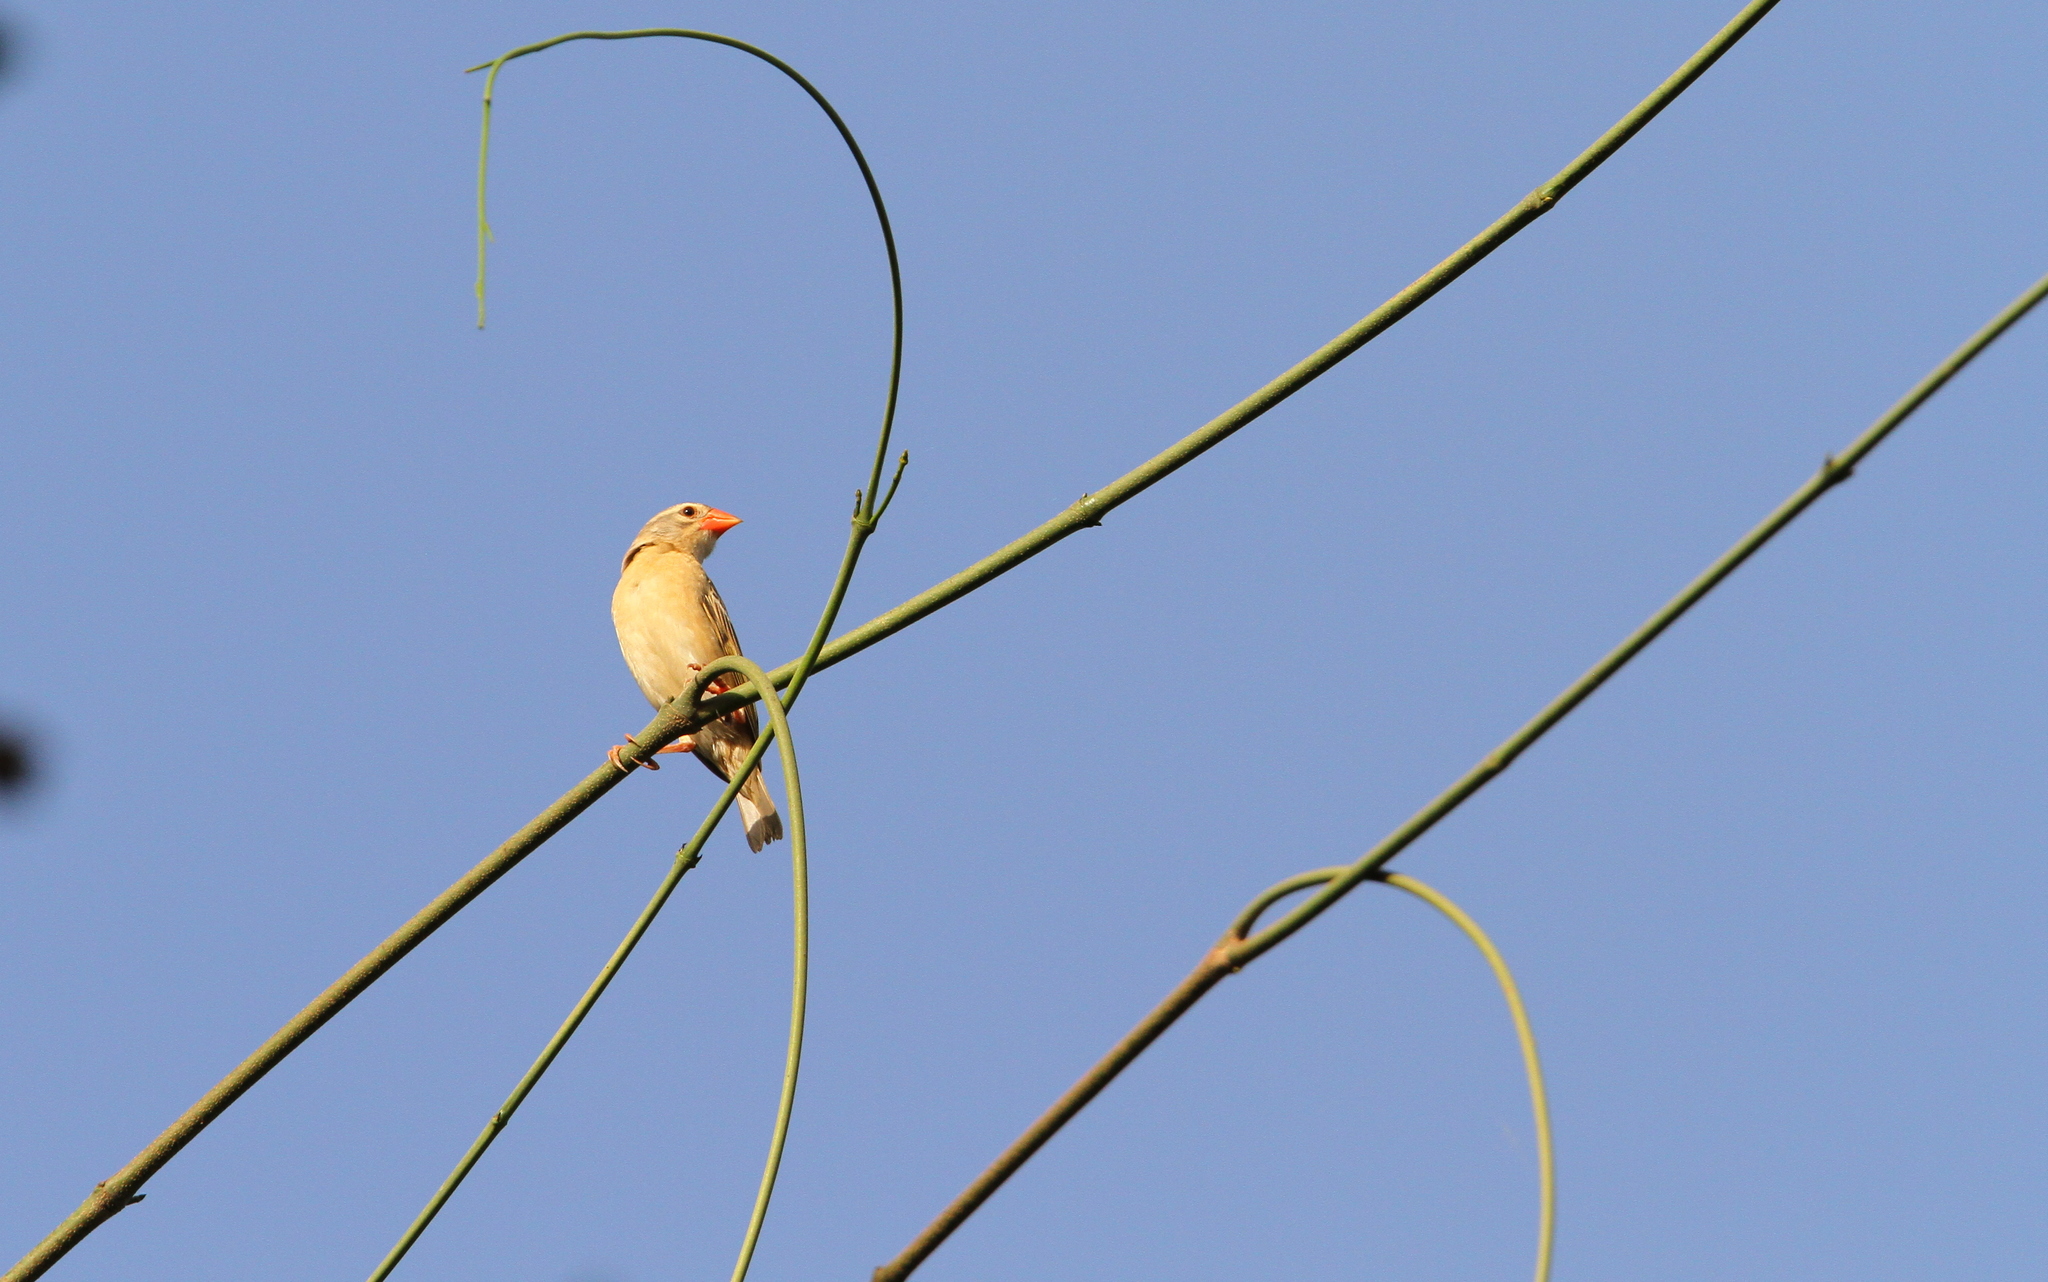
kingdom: Animalia
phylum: Chordata
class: Aves
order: Passeriformes
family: Ploceidae
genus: Quelea
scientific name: Quelea quelea
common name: Red-billed quelea
